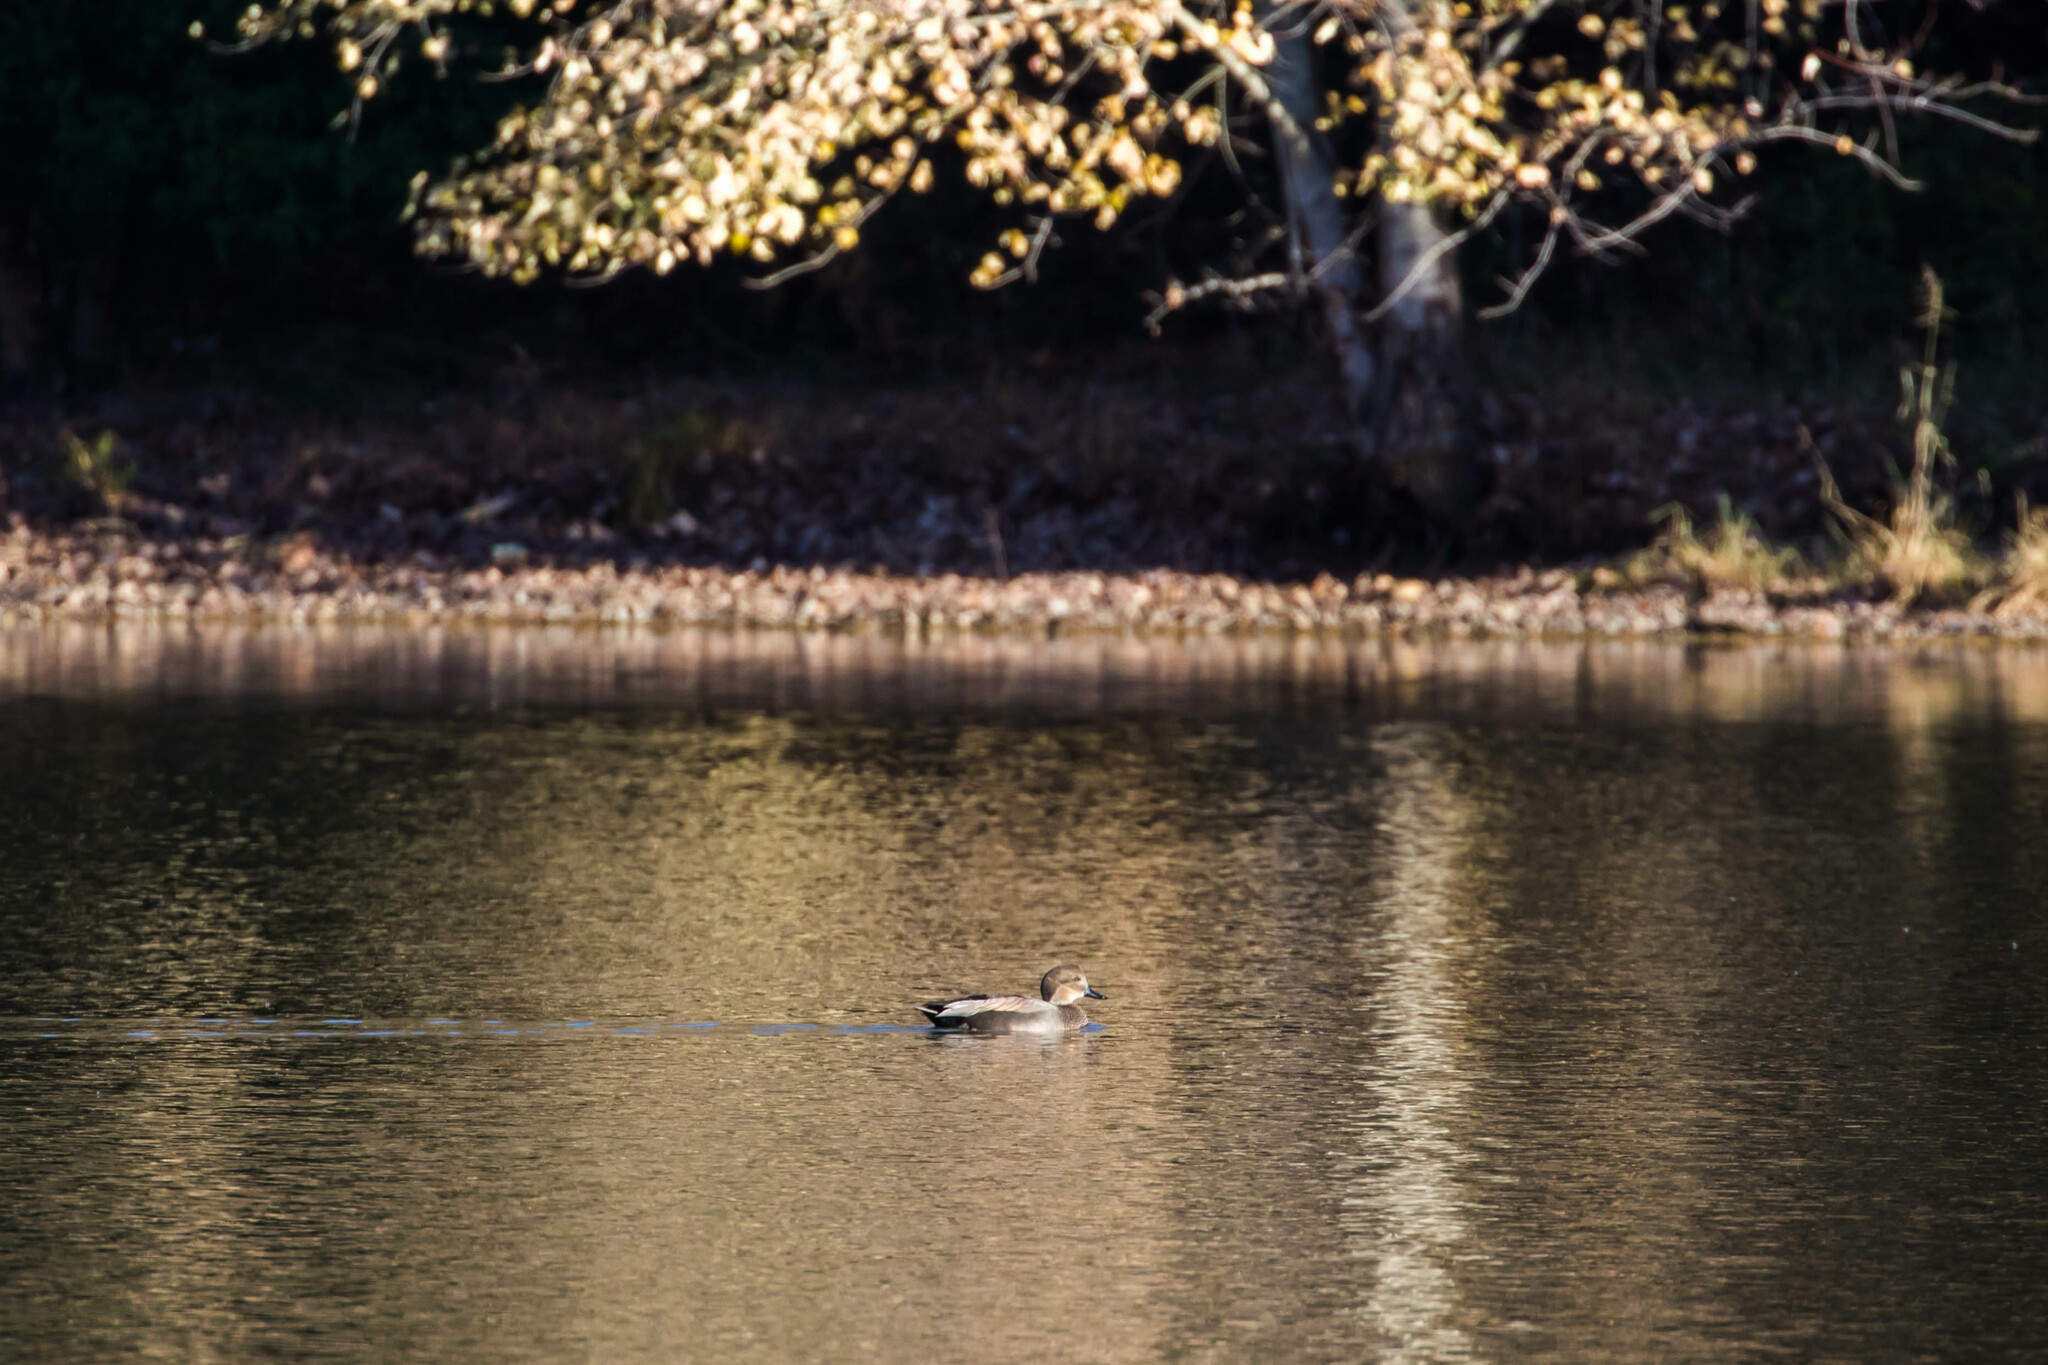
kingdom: Animalia
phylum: Chordata
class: Aves
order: Anseriformes
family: Anatidae
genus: Mareca
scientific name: Mareca strepera
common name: Gadwall
